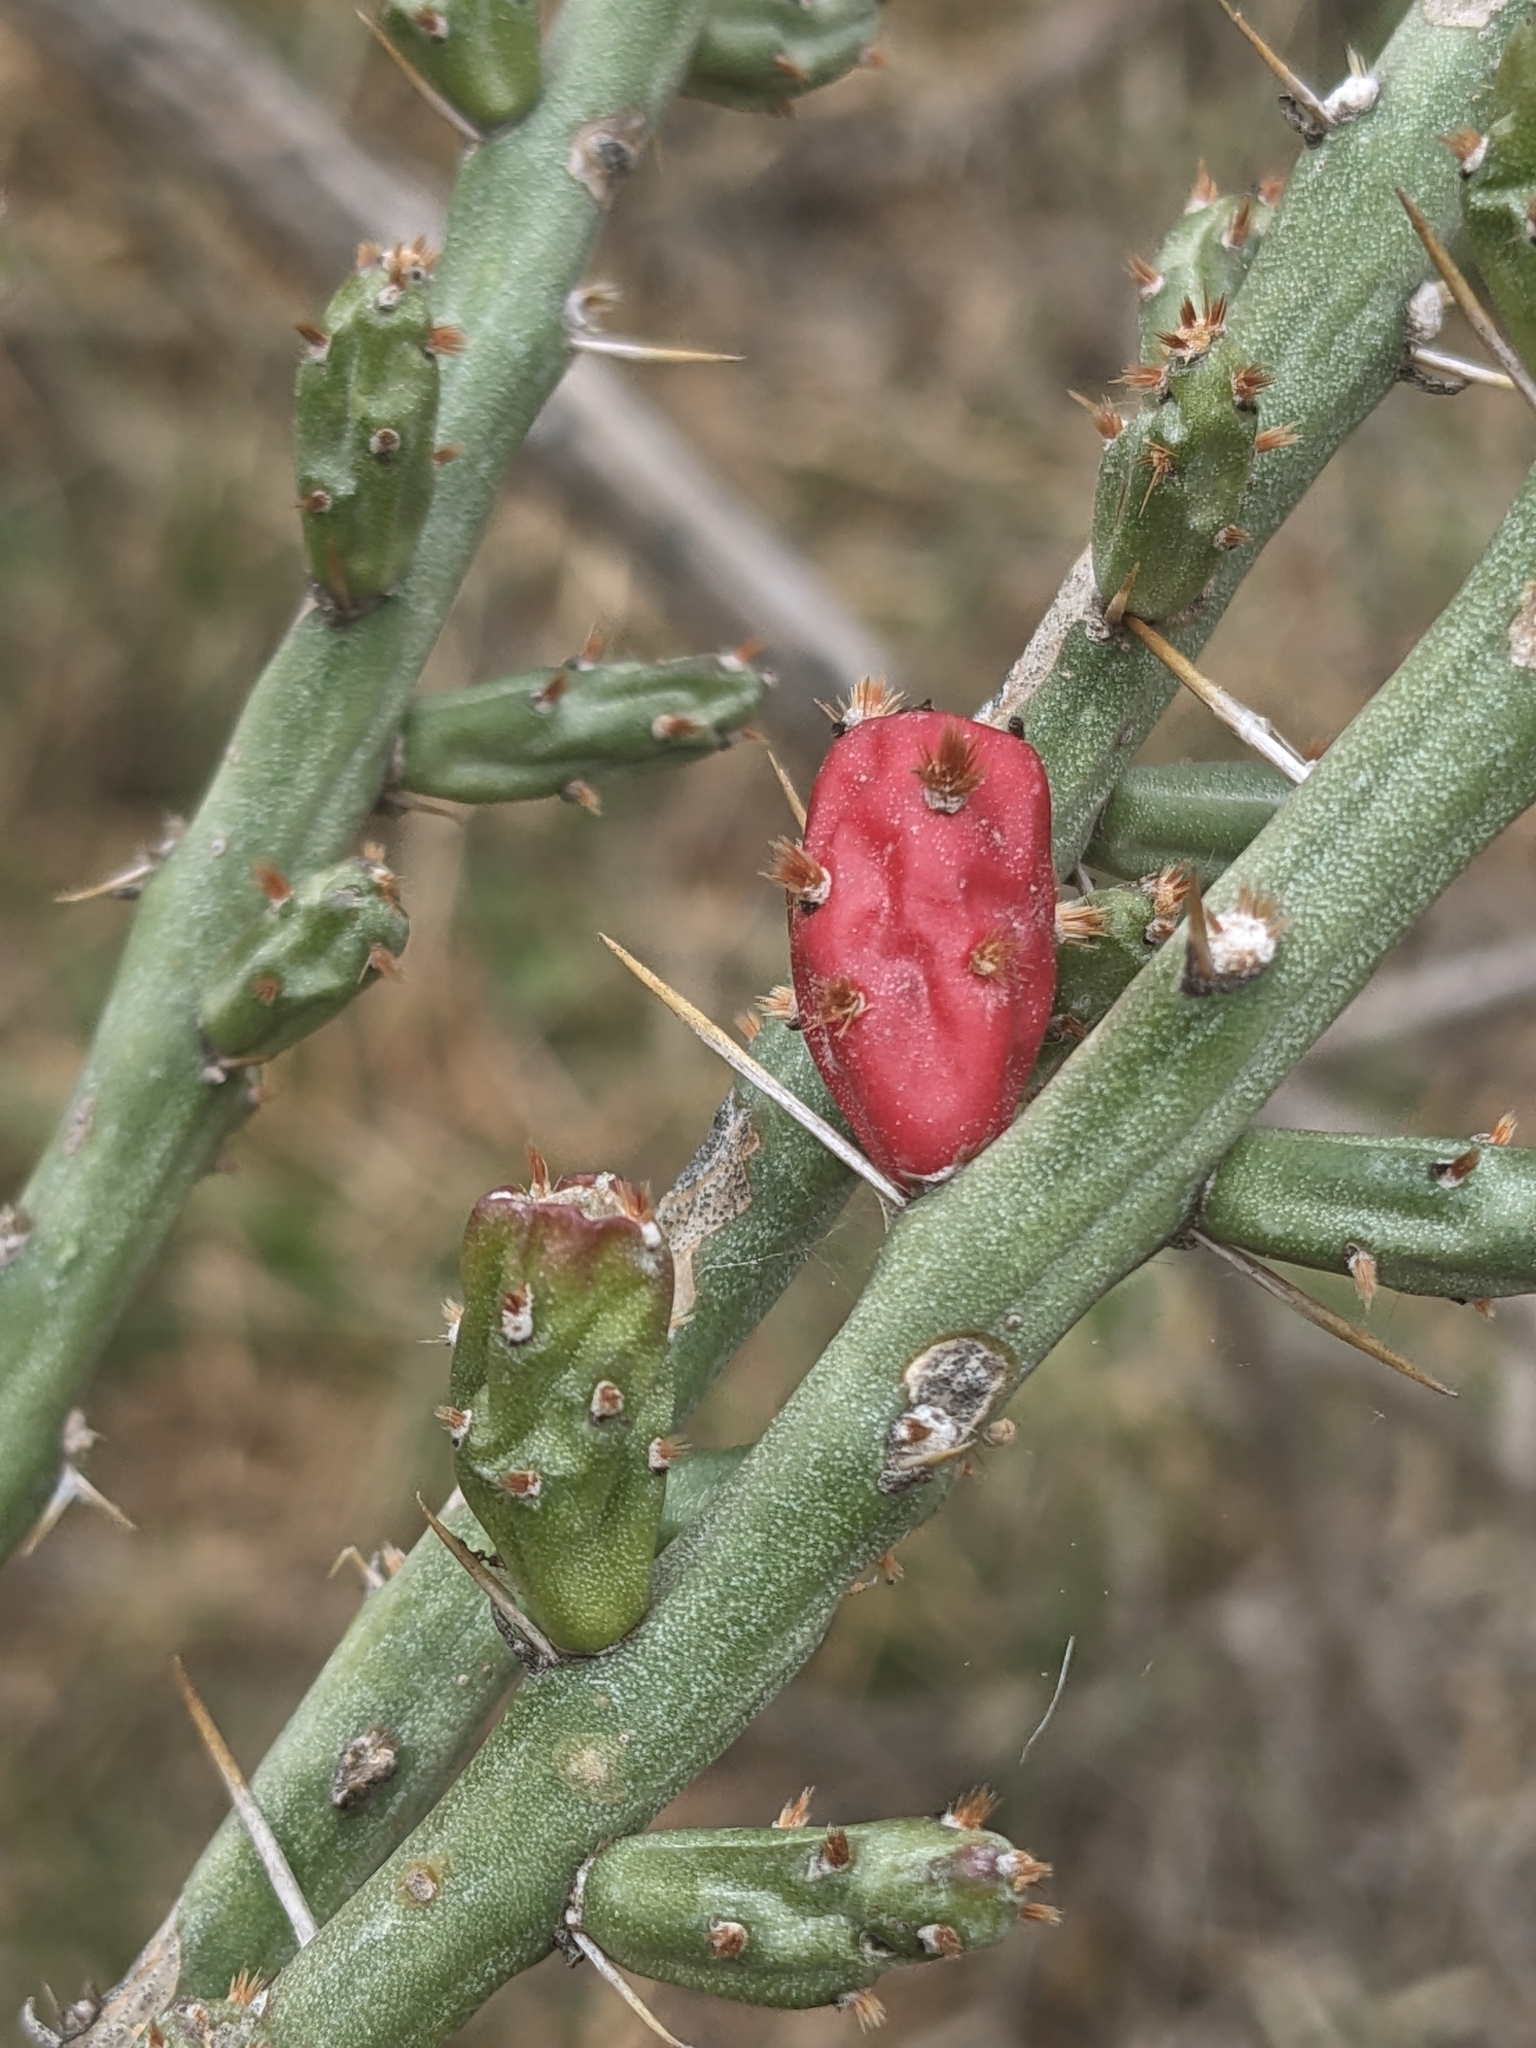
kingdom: Plantae
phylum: Tracheophyta
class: Magnoliopsida
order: Caryophyllales
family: Cactaceae
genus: Cylindropuntia
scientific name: Cylindropuntia leptocaulis
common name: Christmas cactus
